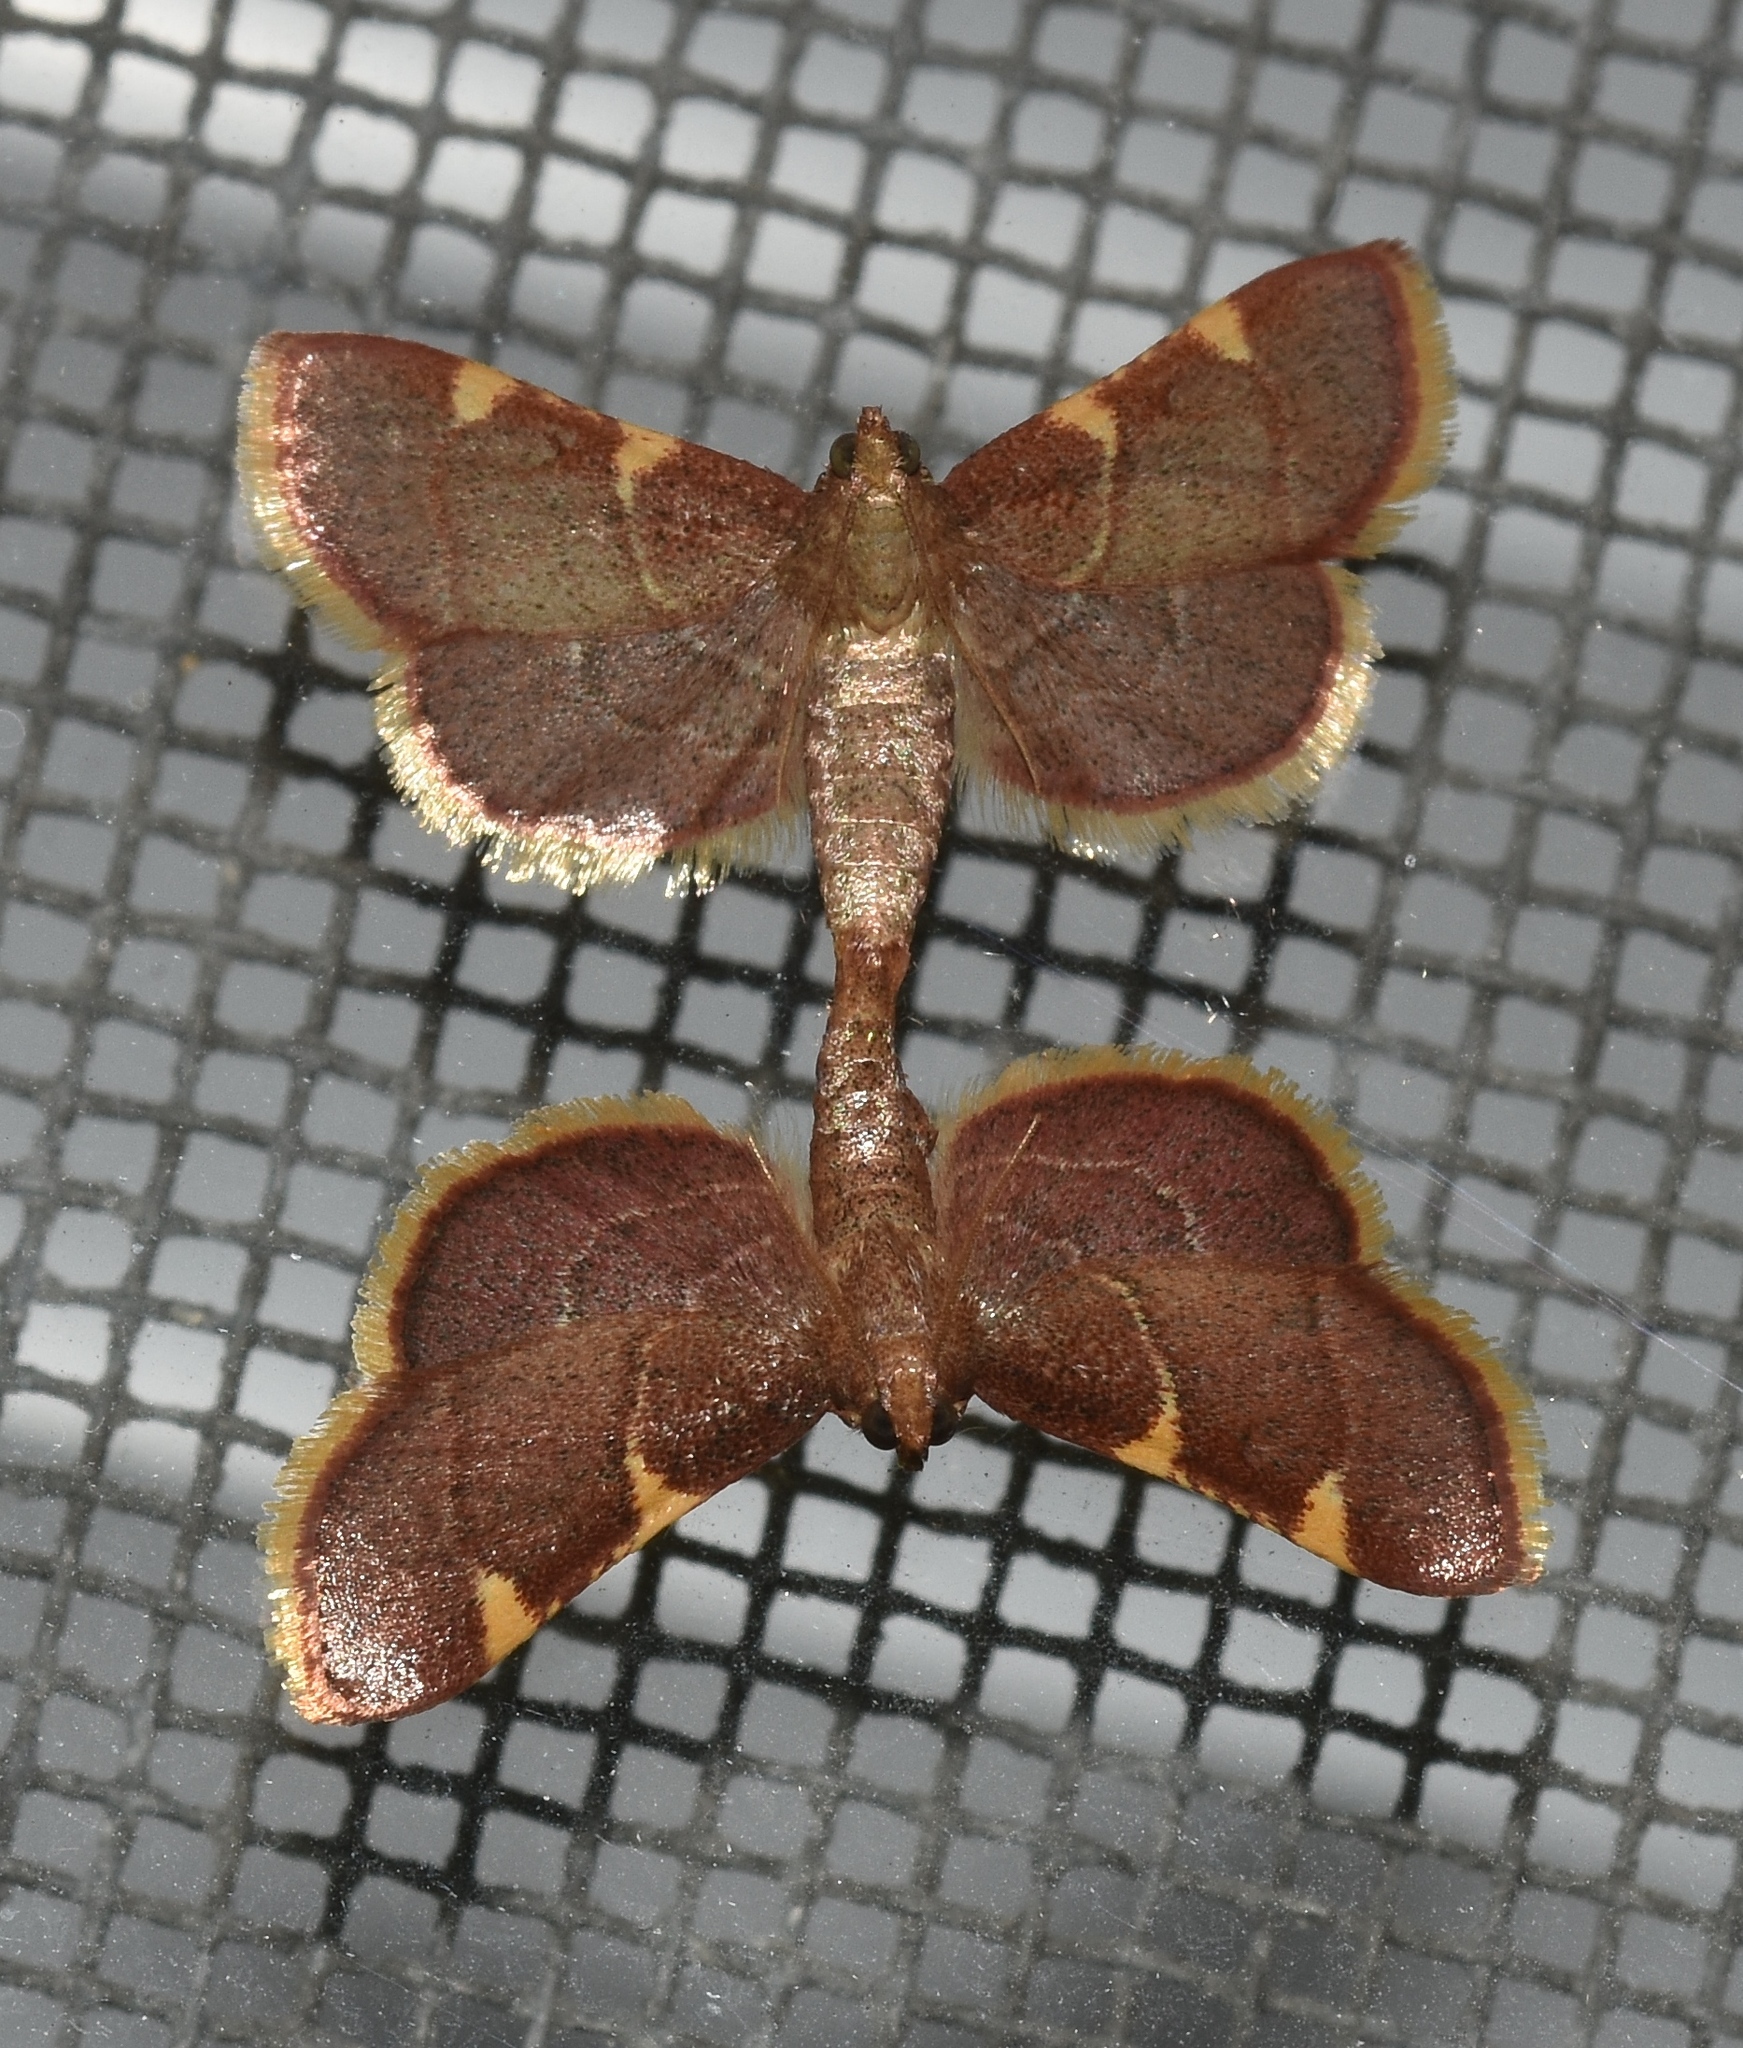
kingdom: Animalia
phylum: Arthropoda
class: Insecta
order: Lepidoptera
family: Pyralidae
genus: Hypsopygia
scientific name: Hypsopygia olinalis
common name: Yellow-fringed dolichomia moth
